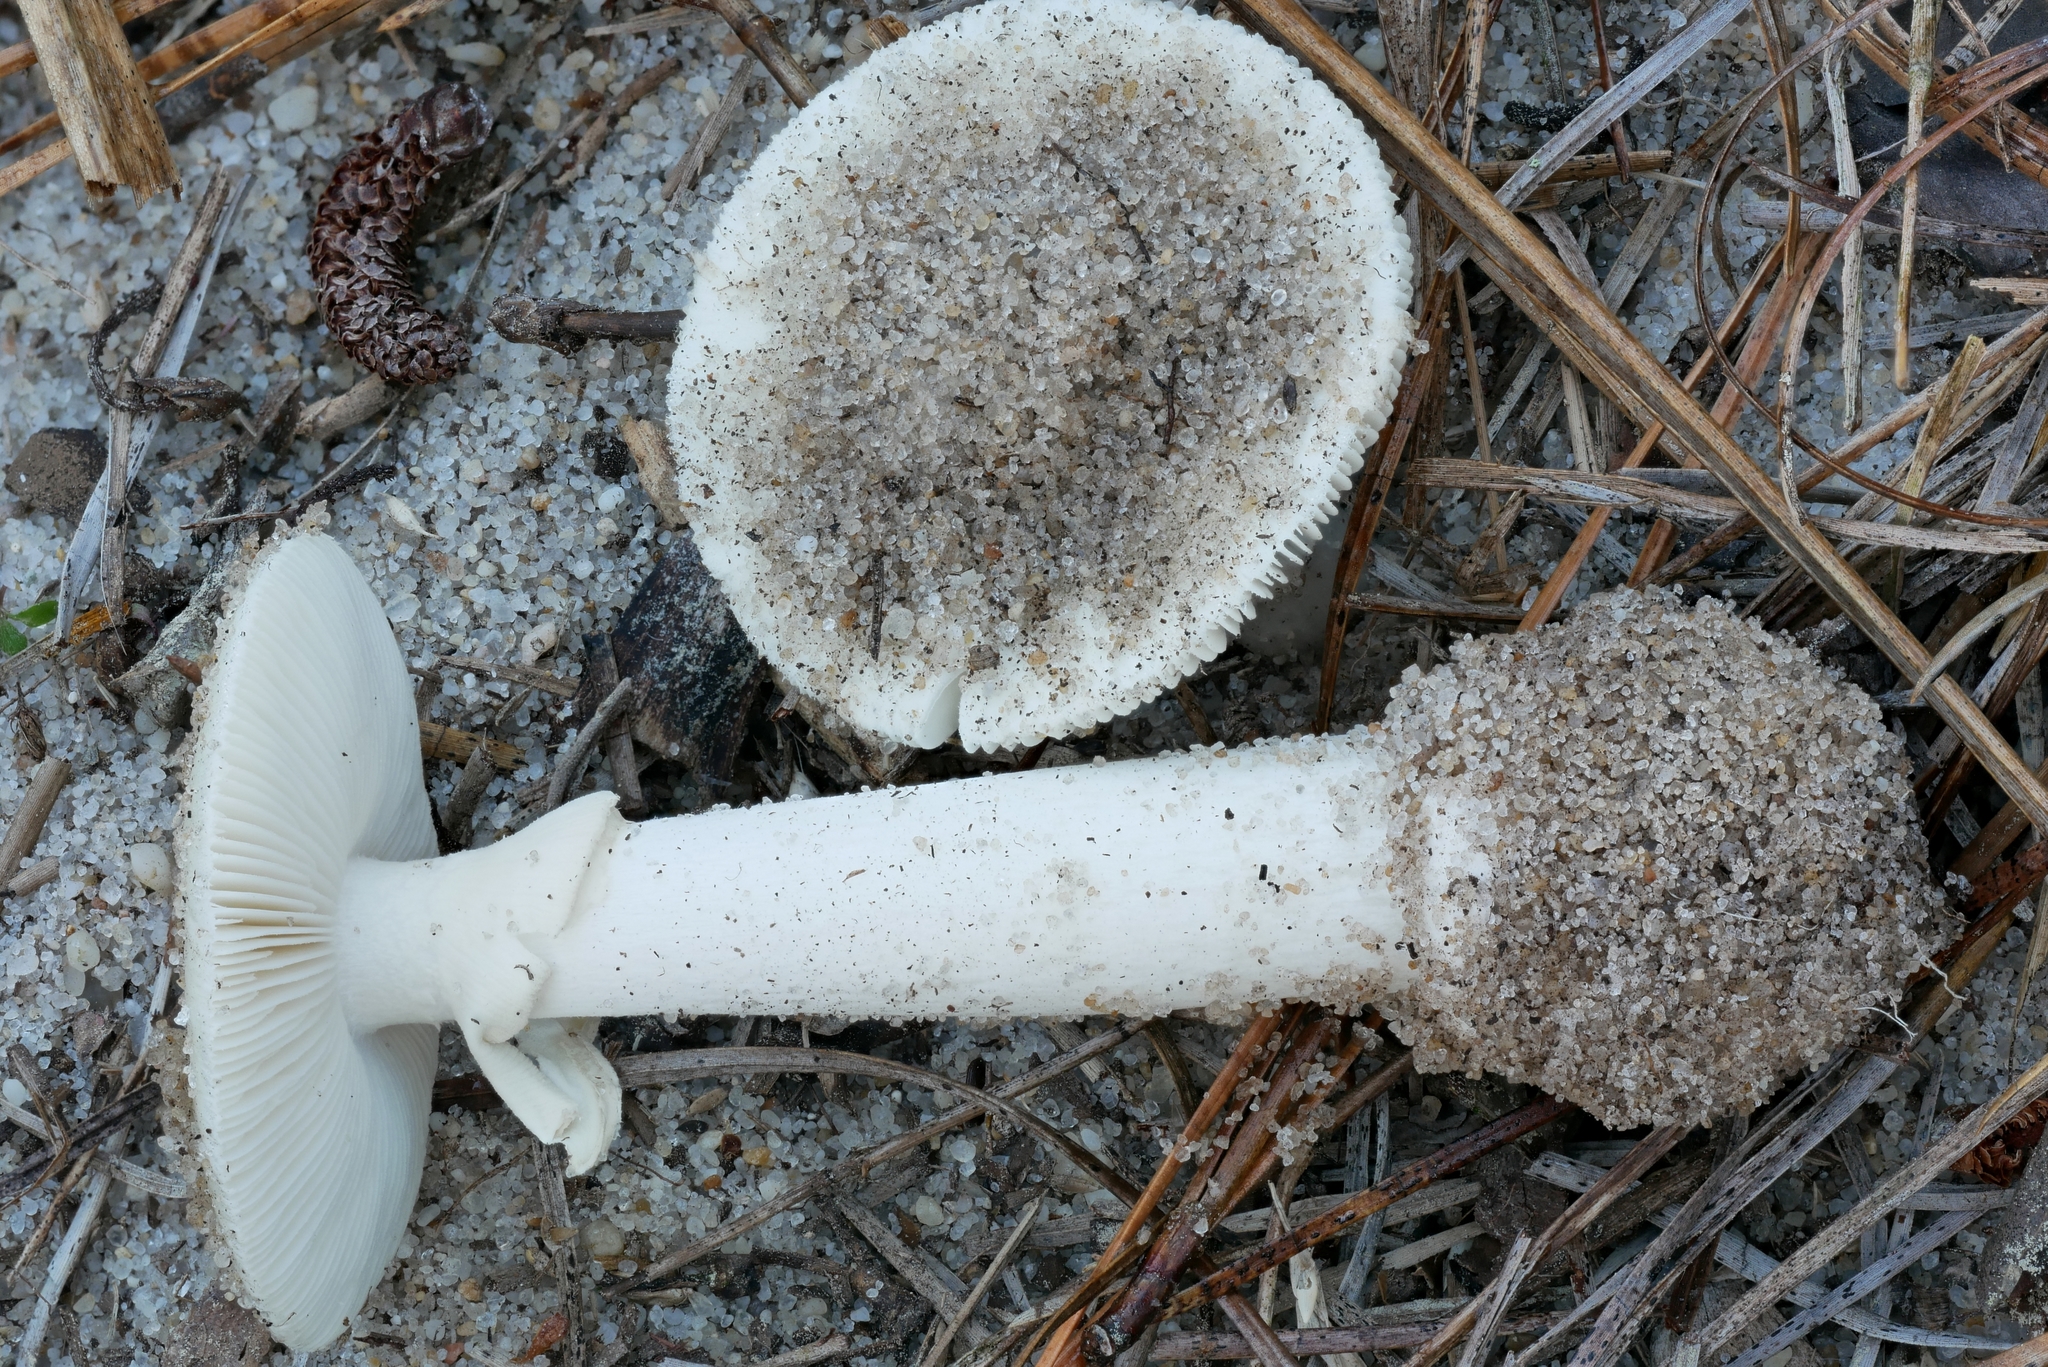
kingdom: Fungi
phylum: Basidiomycota
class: Agaricomycetes
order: Agaricales
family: Amanitaceae
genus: Amanita
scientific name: Amanita
